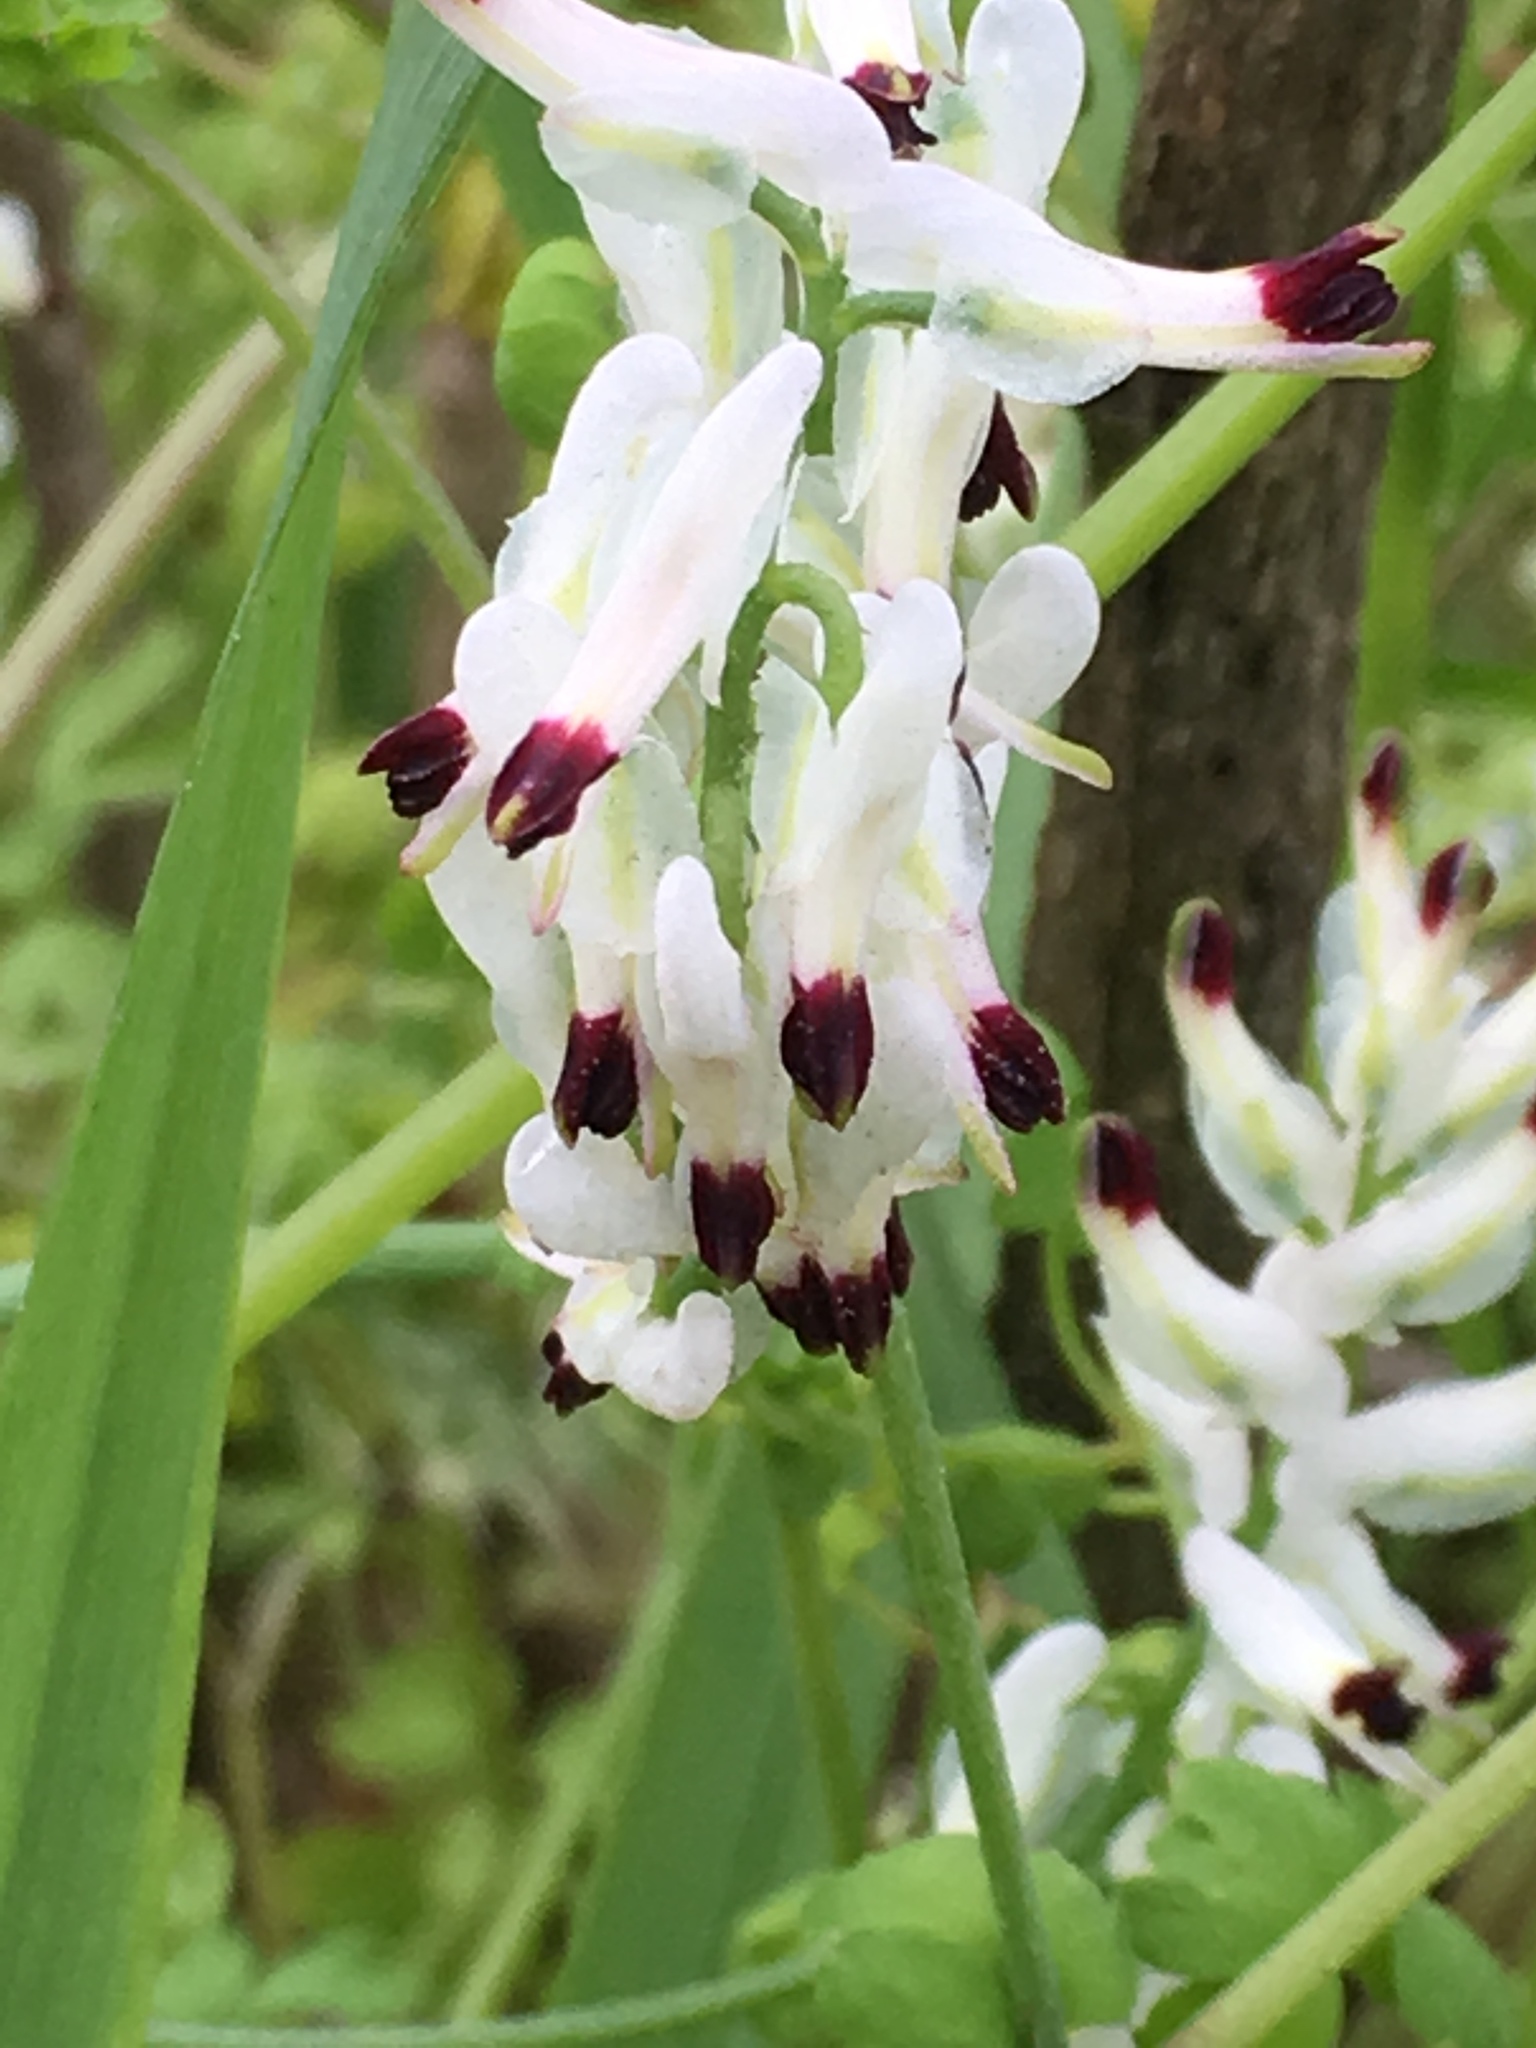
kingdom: Plantae
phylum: Tracheophyta
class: Magnoliopsida
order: Ranunculales
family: Papaveraceae
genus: Fumaria
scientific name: Fumaria capreolata
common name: White ramping-fumitory
